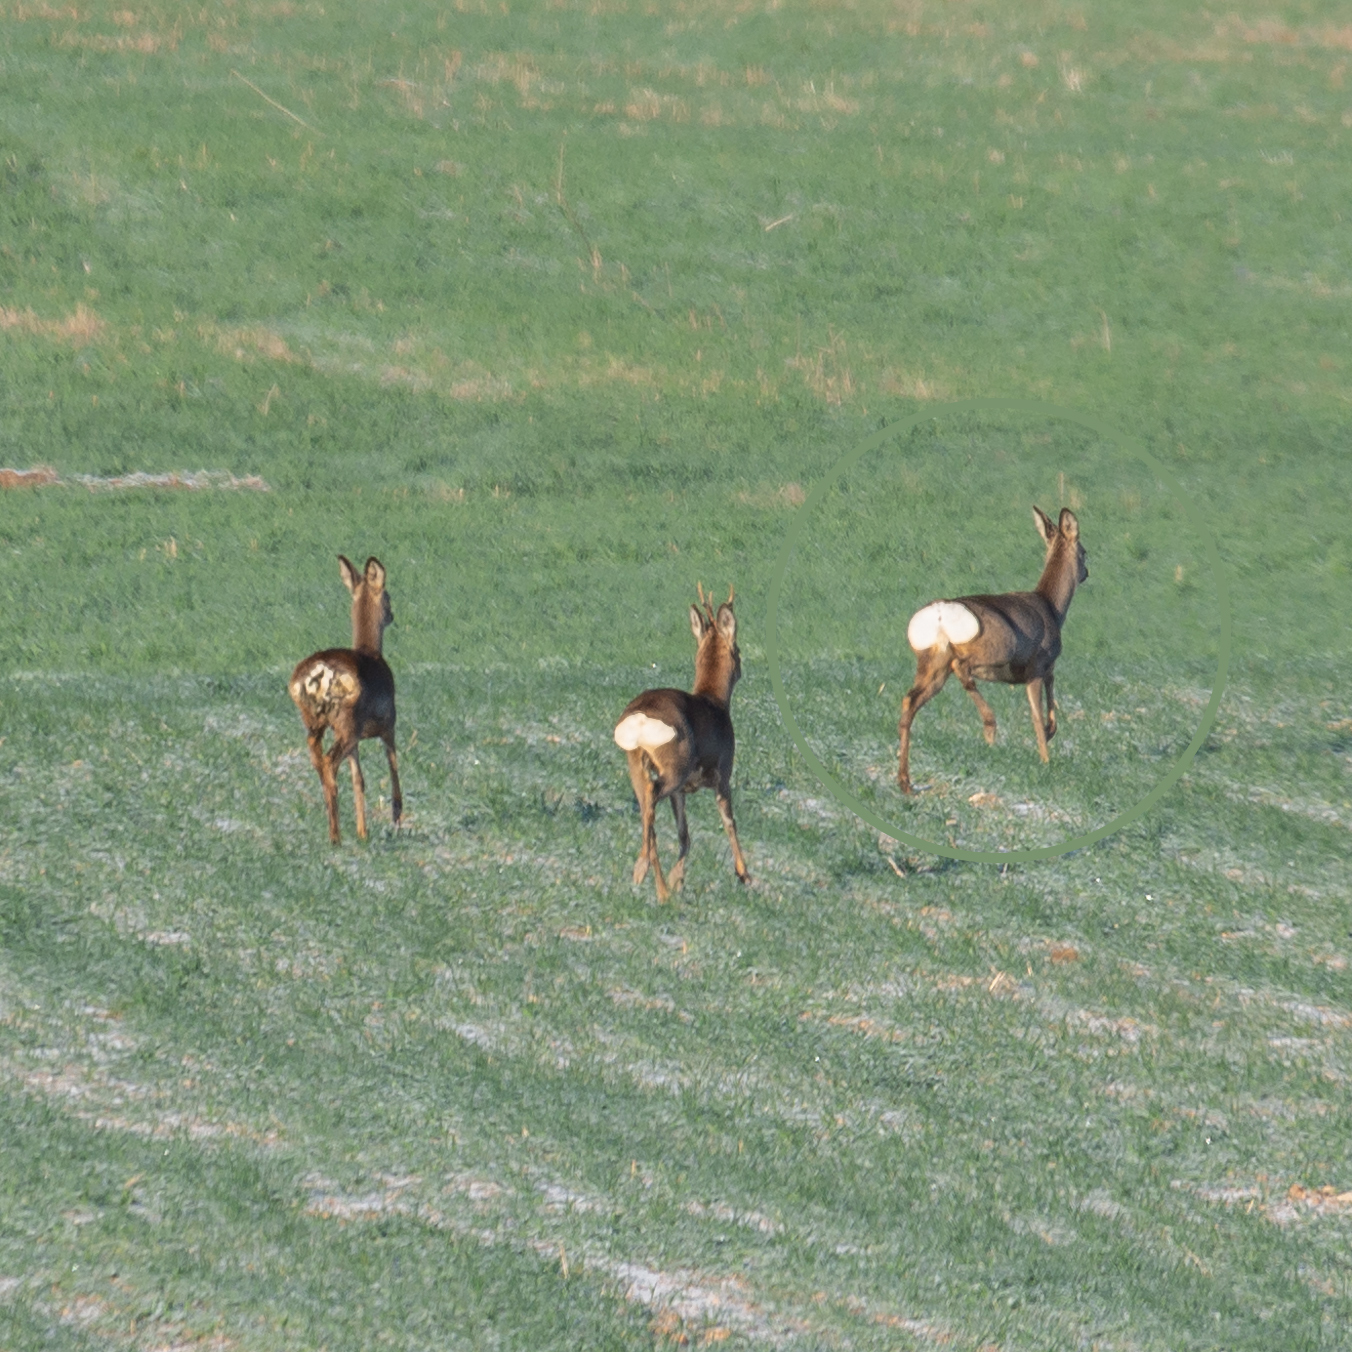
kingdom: Animalia
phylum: Chordata
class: Mammalia
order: Artiodactyla
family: Cervidae
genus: Capreolus
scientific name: Capreolus capreolus
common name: Western roe deer
